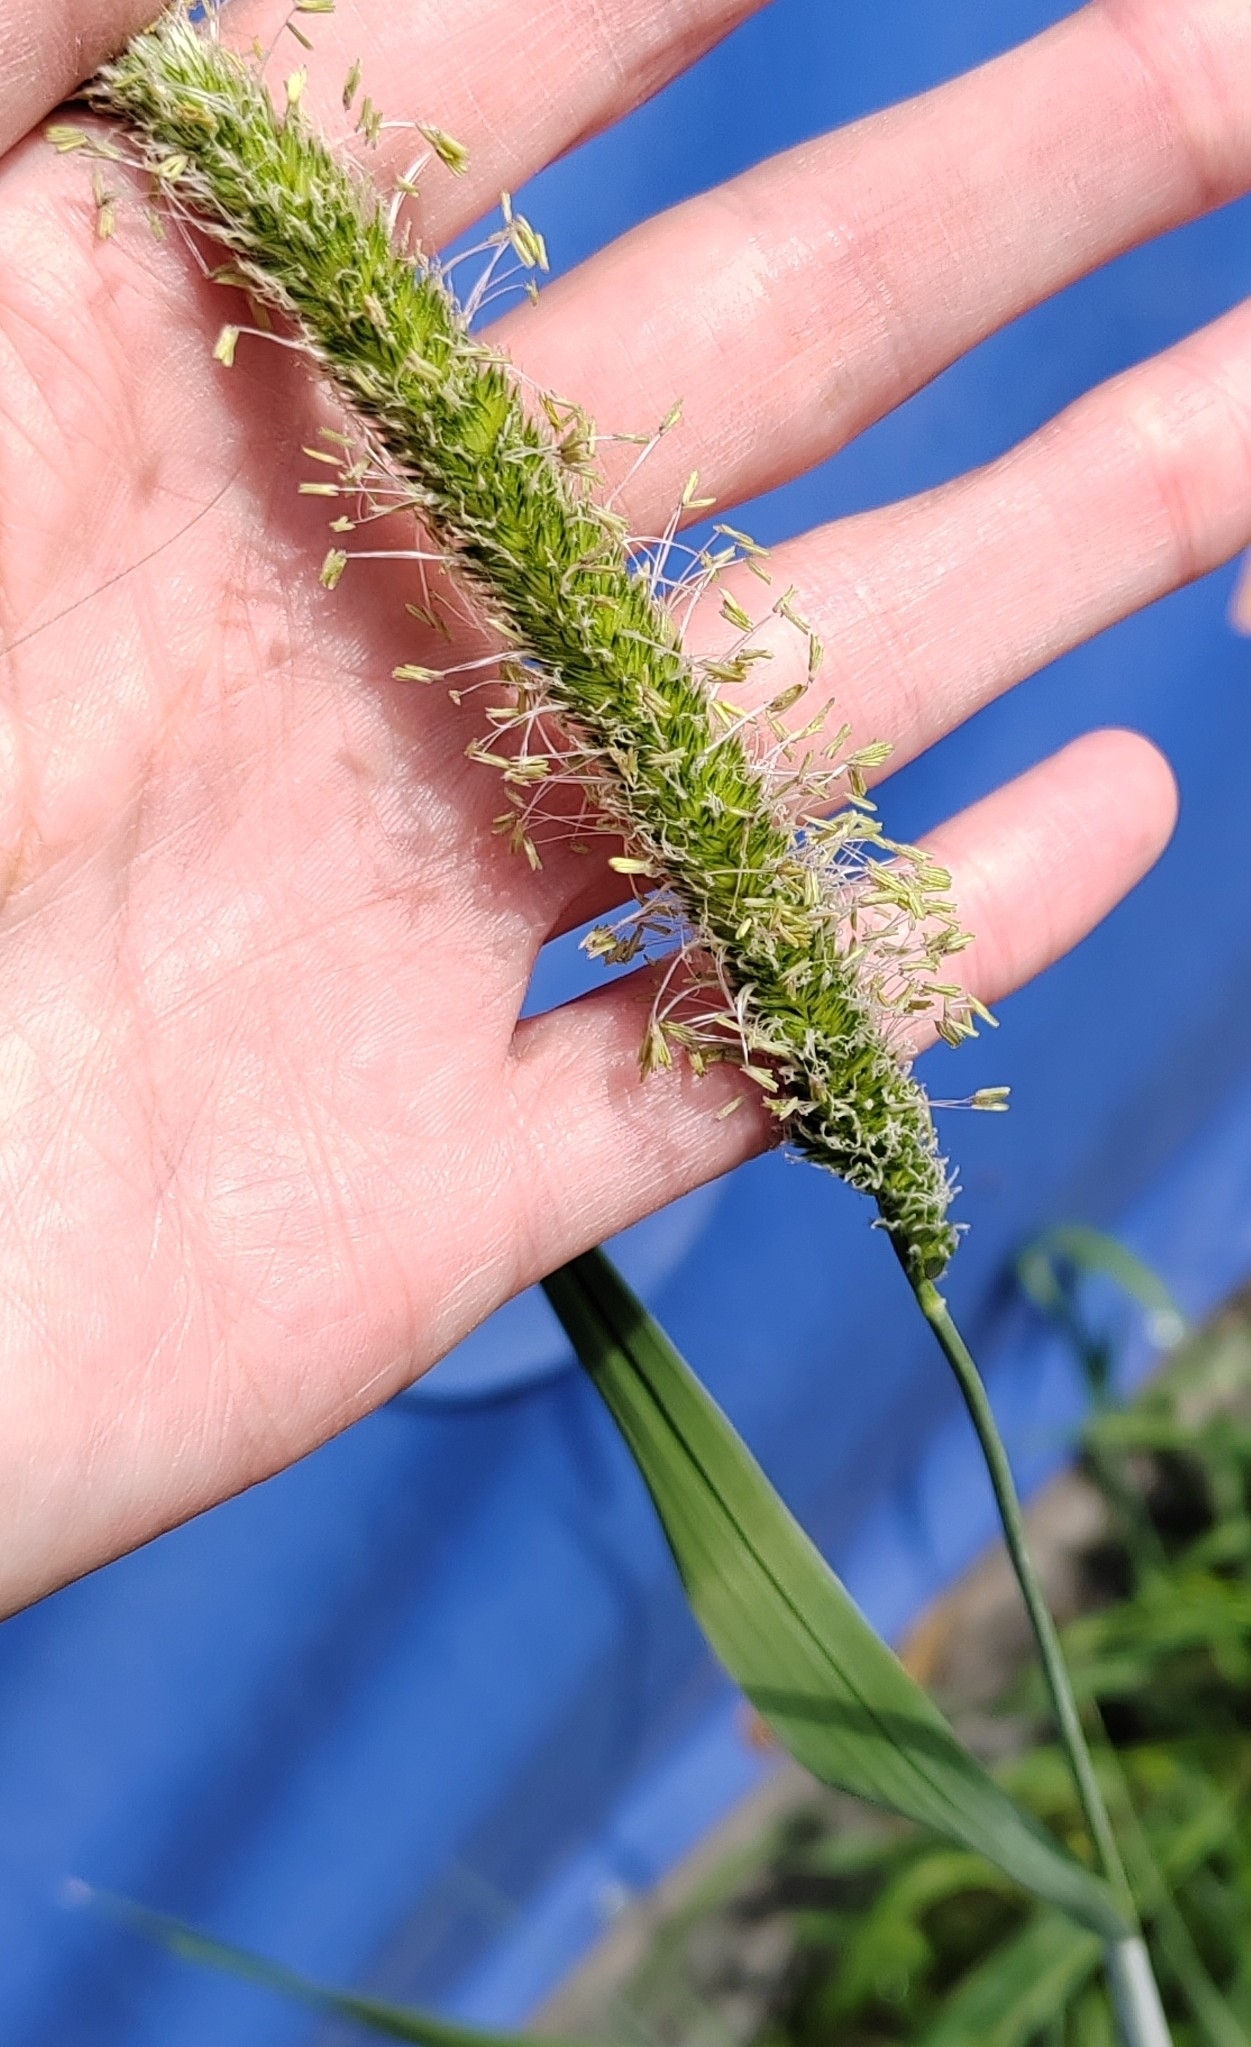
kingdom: Plantae
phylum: Tracheophyta
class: Liliopsida
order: Poales
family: Poaceae
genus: Phleum
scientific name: Phleum pratense
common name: Timothy grass
